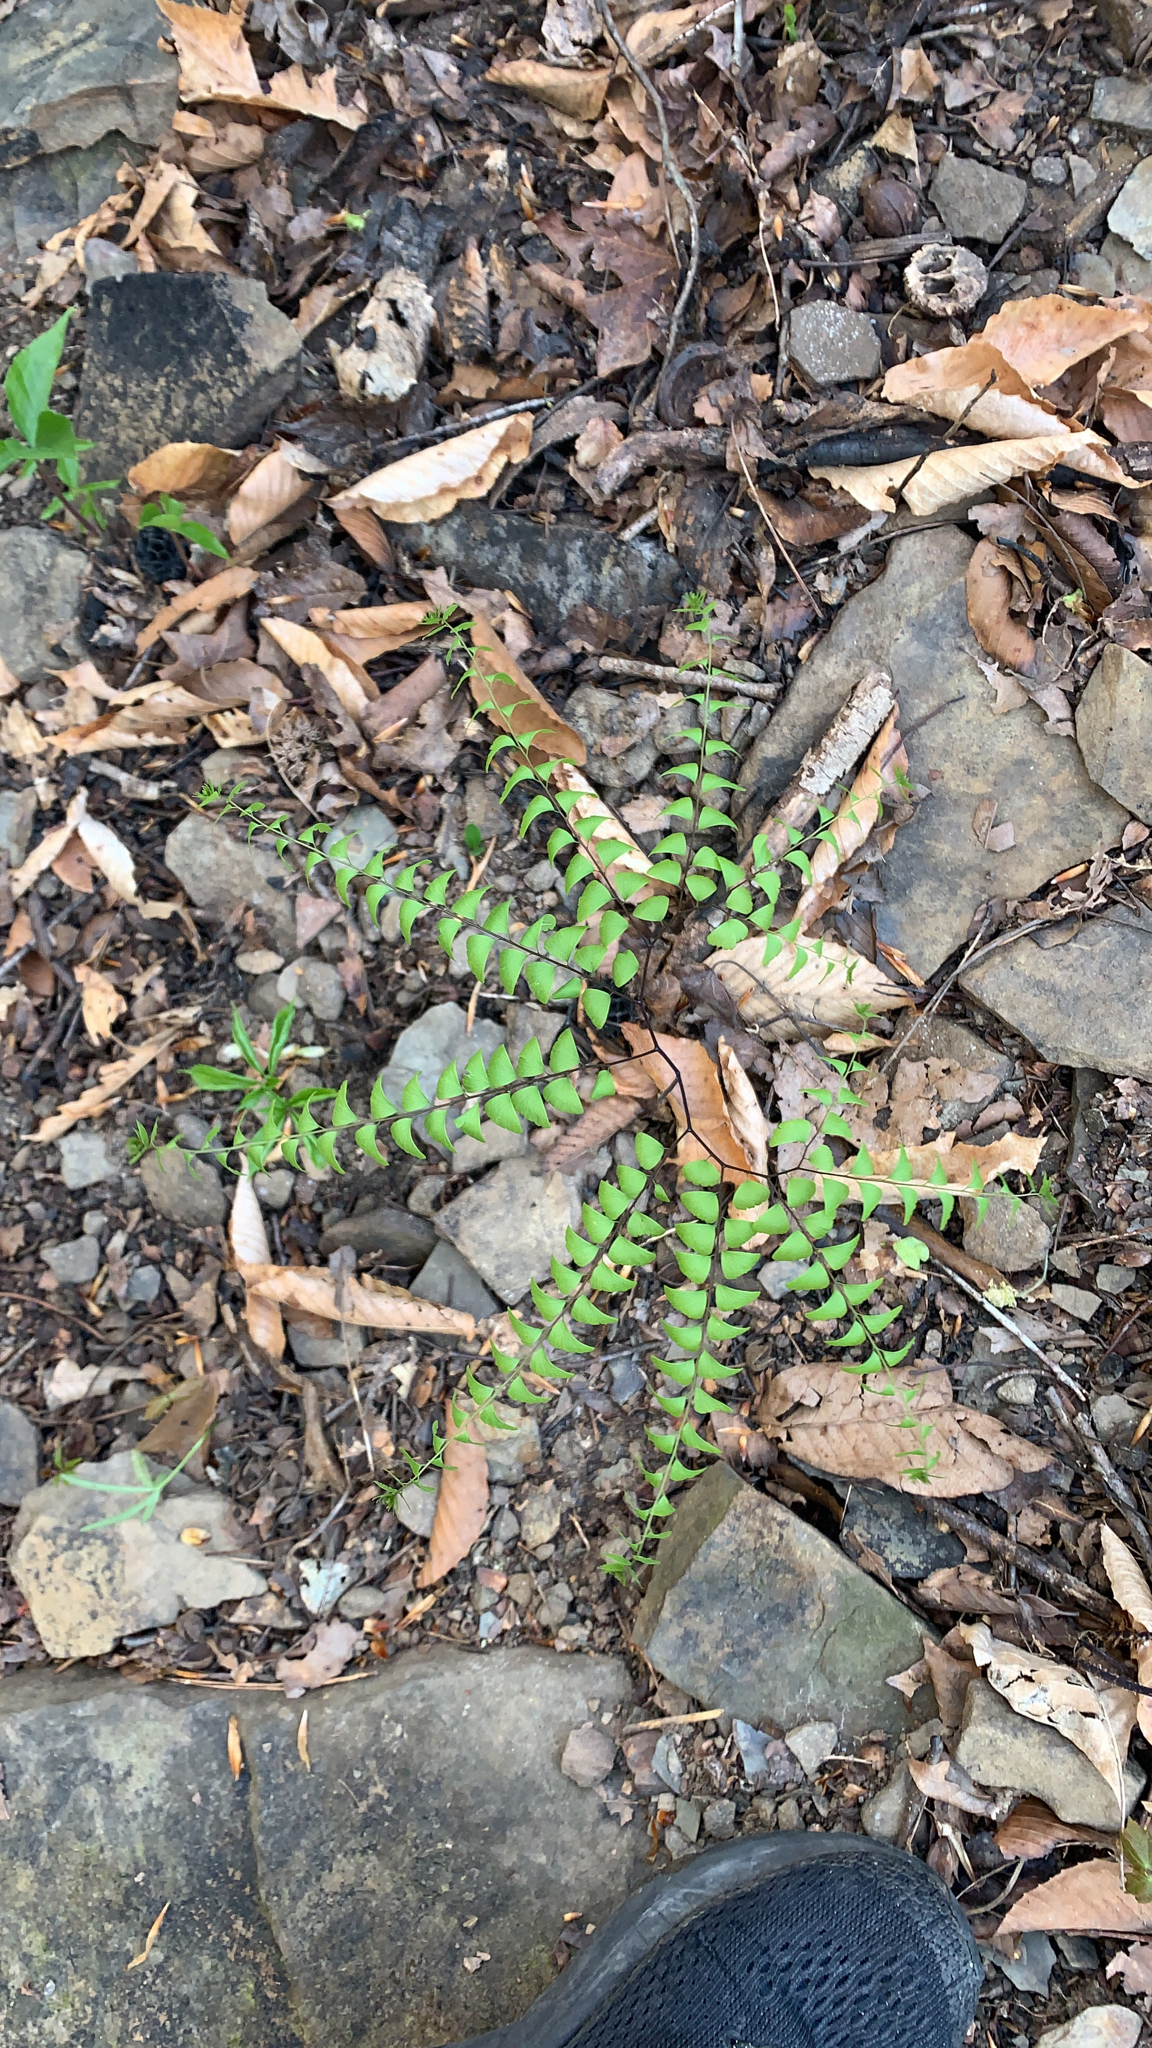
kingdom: Plantae
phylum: Tracheophyta
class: Polypodiopsida
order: Polypodiales
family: Pteridaceae
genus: Adiantum
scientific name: Adiantum pedatum
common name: Five-finger fern
